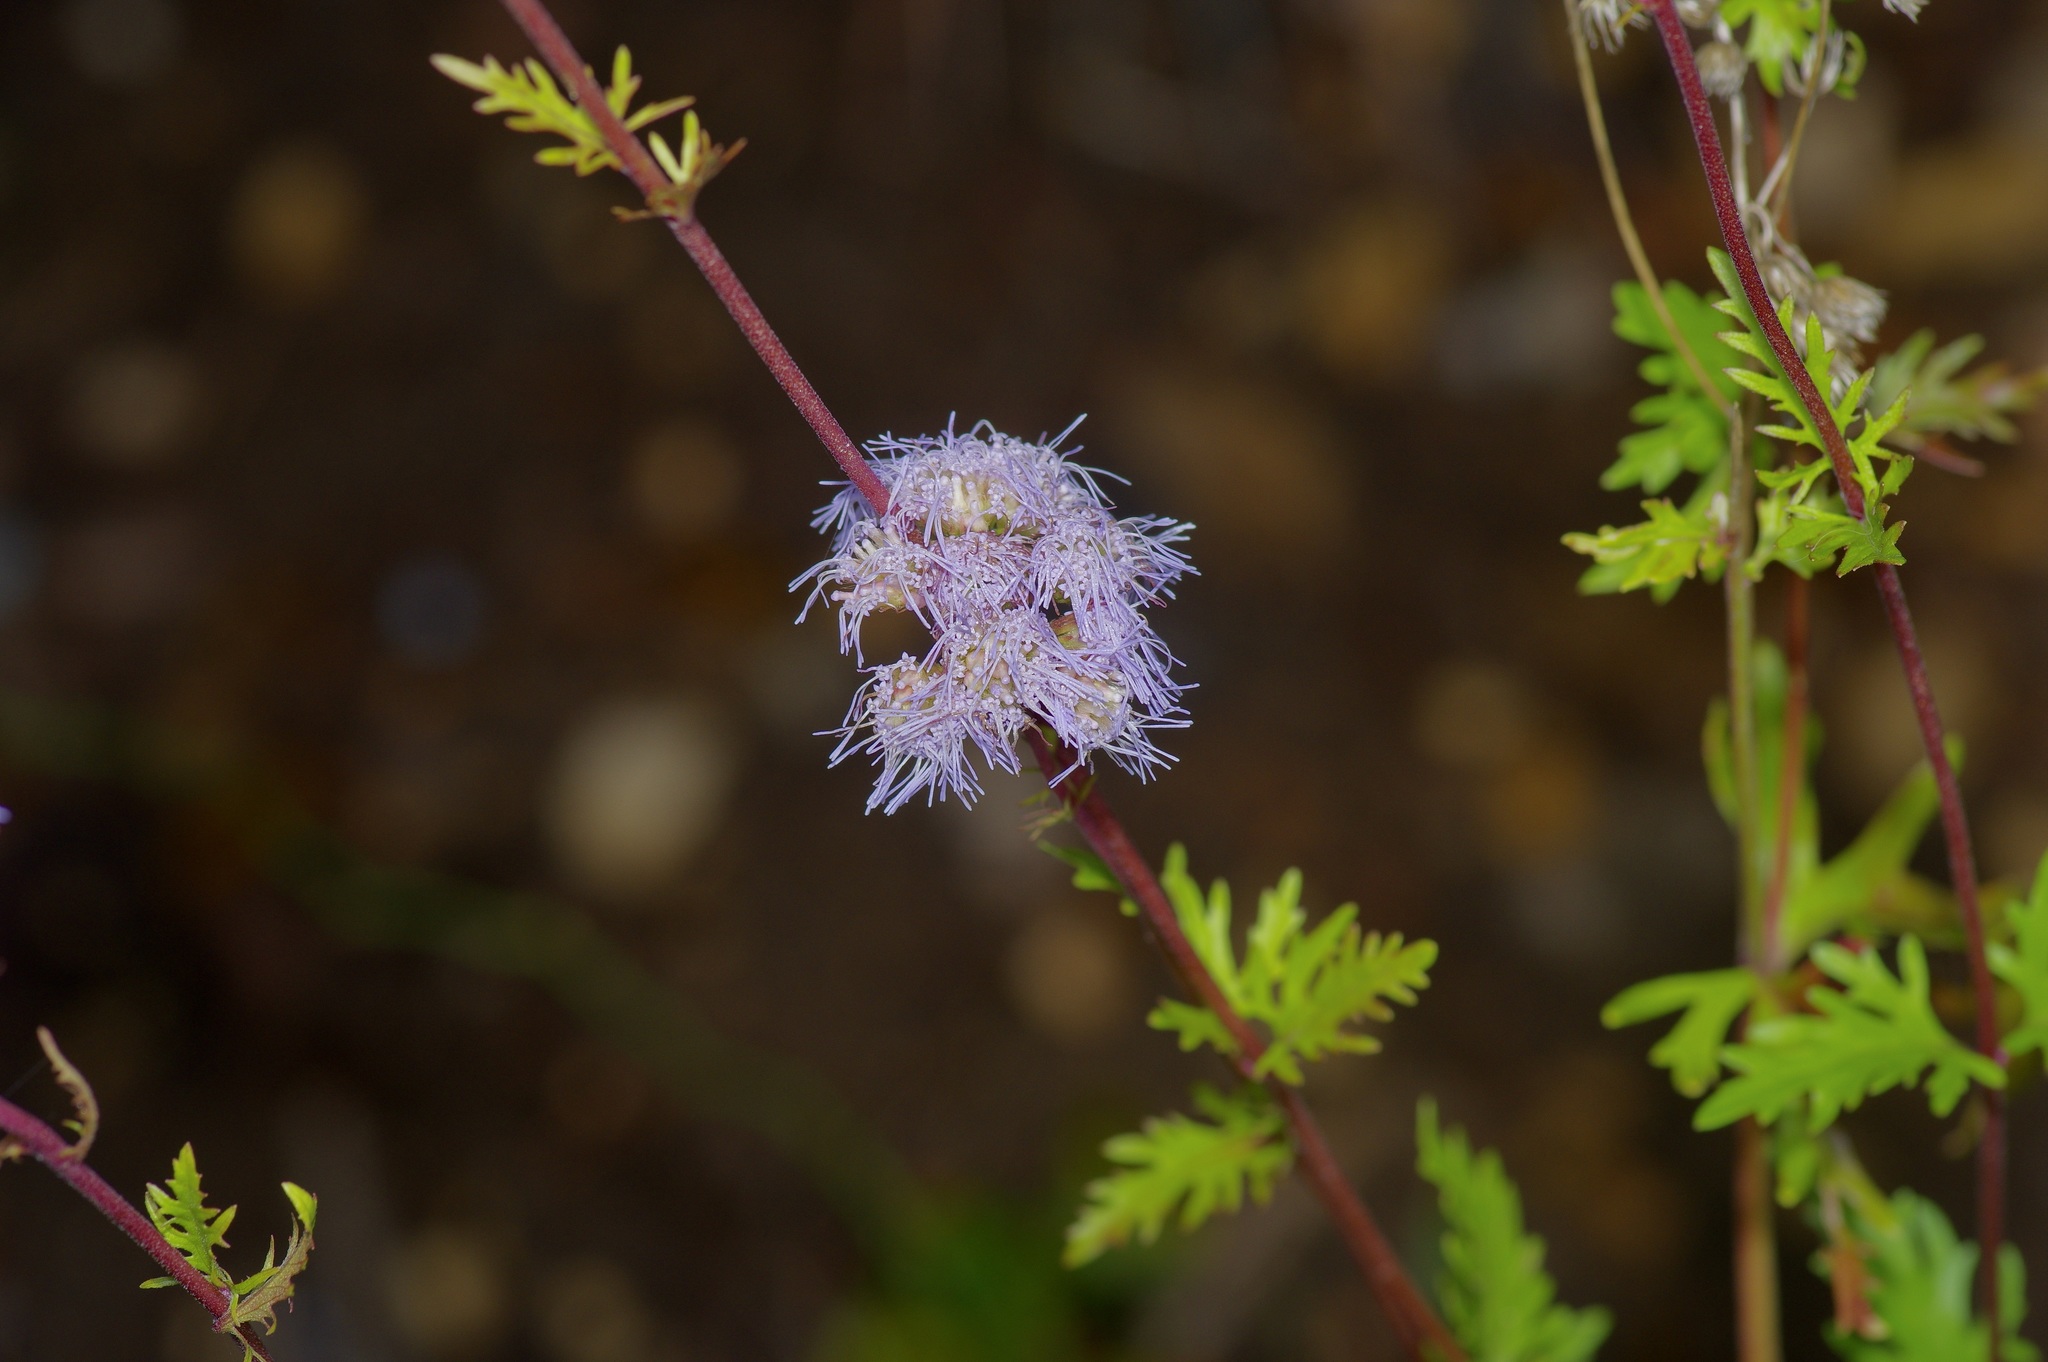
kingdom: Plantae
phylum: Tracheophyta
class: Magnoliopsida
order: Asterales
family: Asteraceae
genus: Conoclinium
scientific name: Conoclinium dissectum
